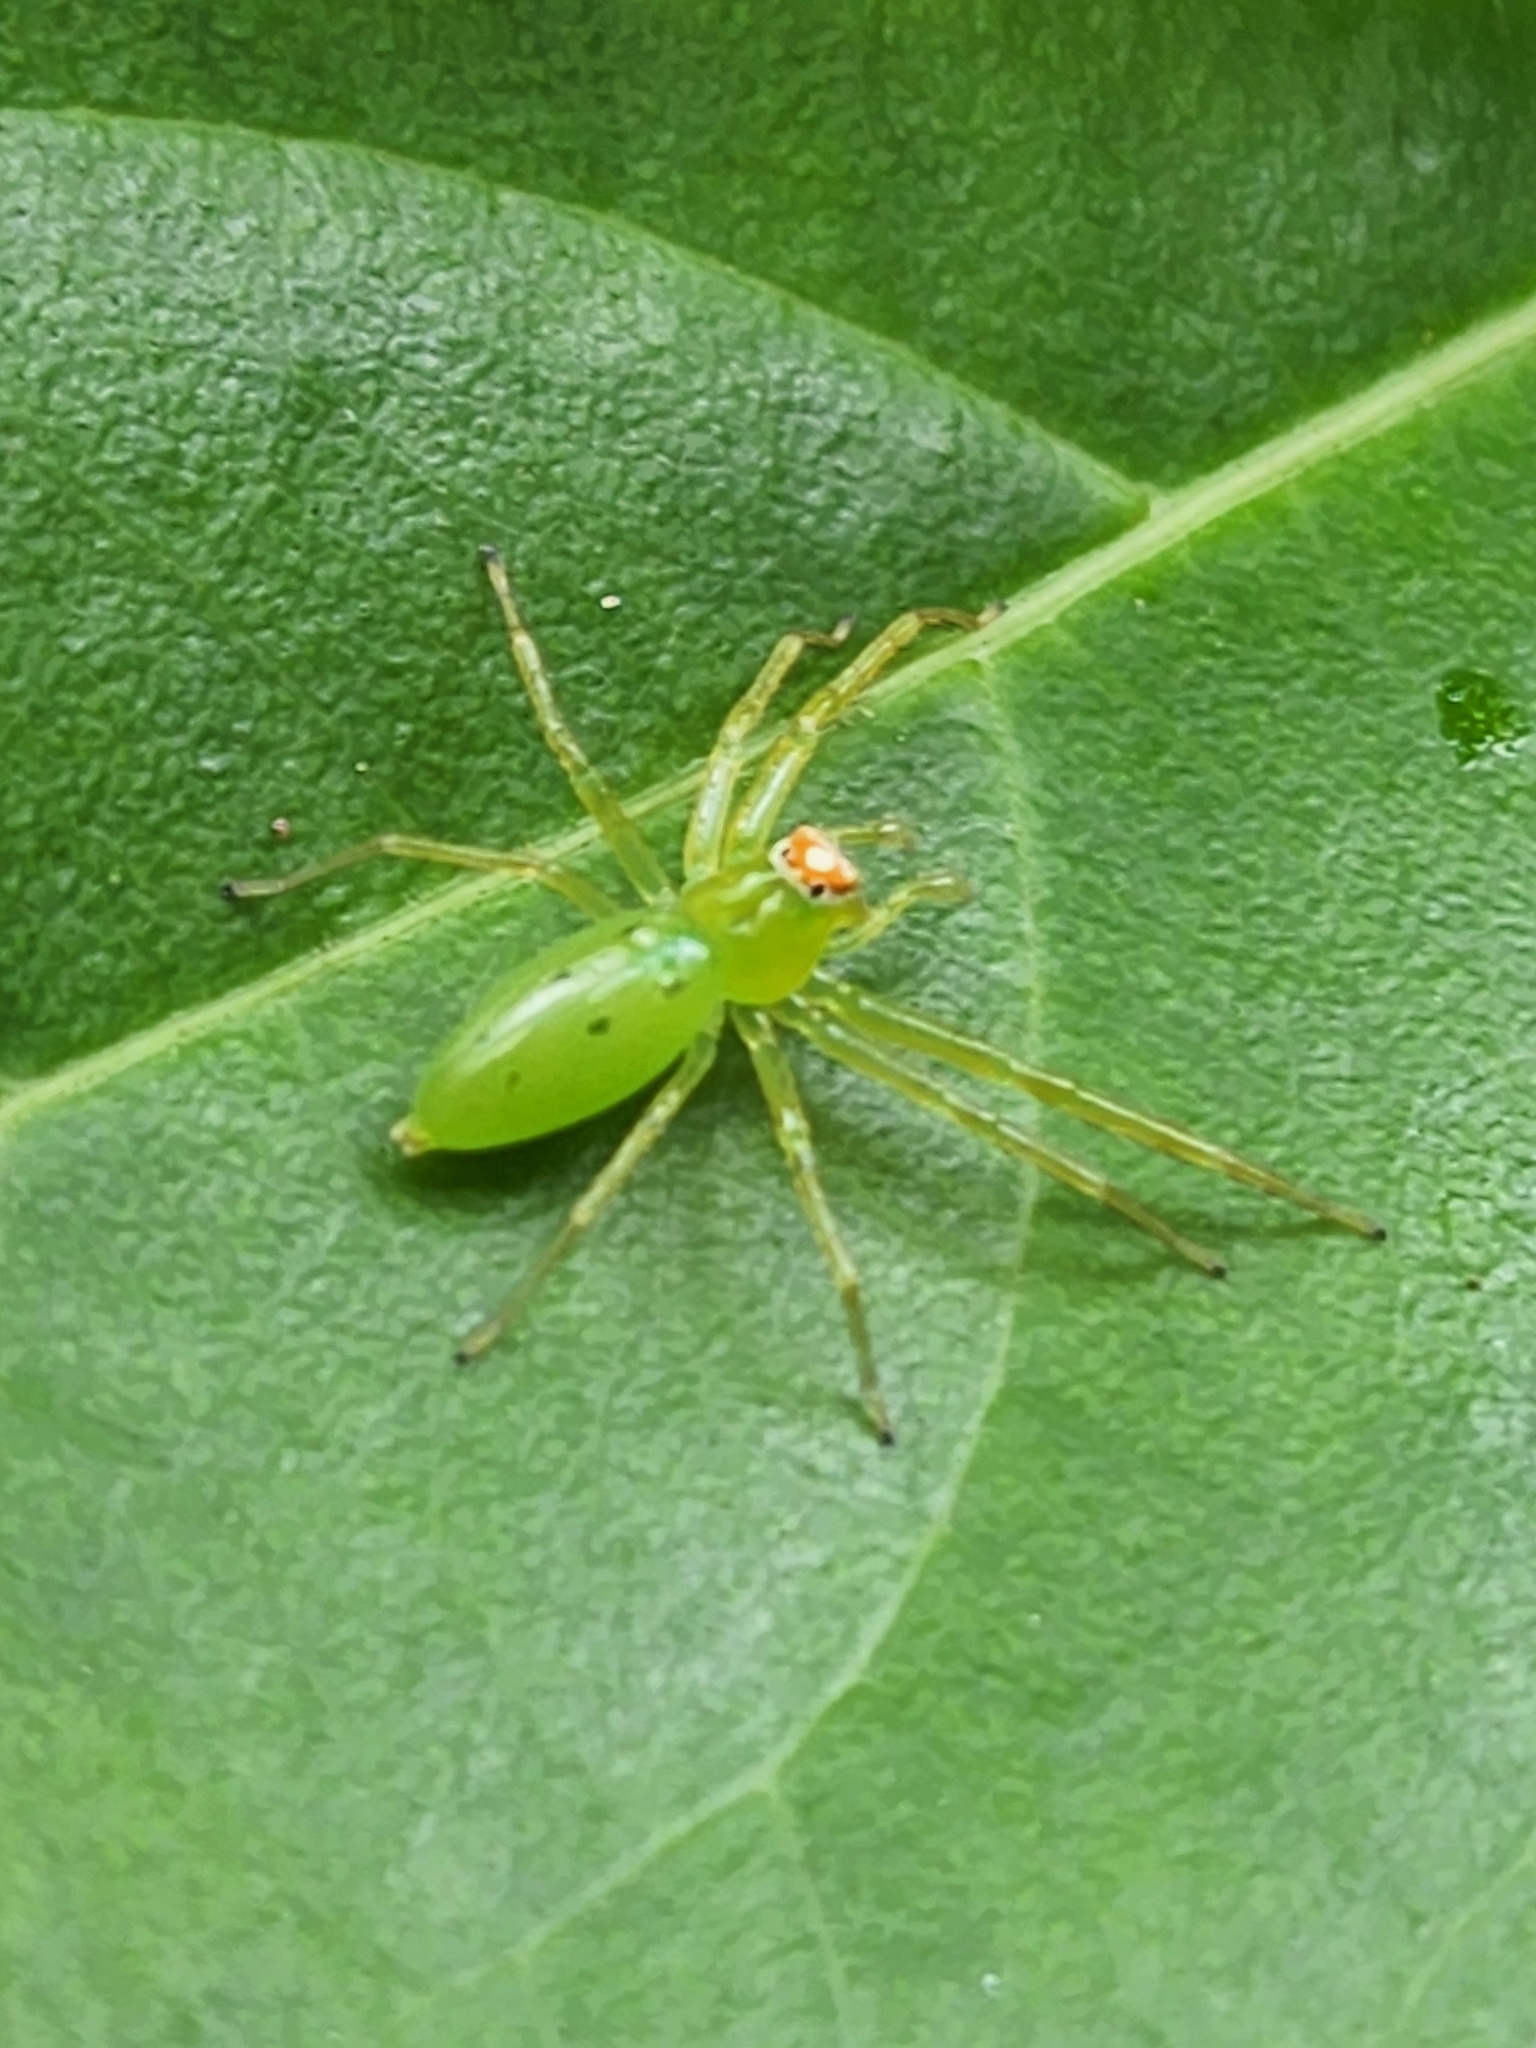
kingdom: Animalia
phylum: Arthropoda
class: Arachnida
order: Araneae
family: Salticidae
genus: Lyssomanes
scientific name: Lyssomanes viridis
